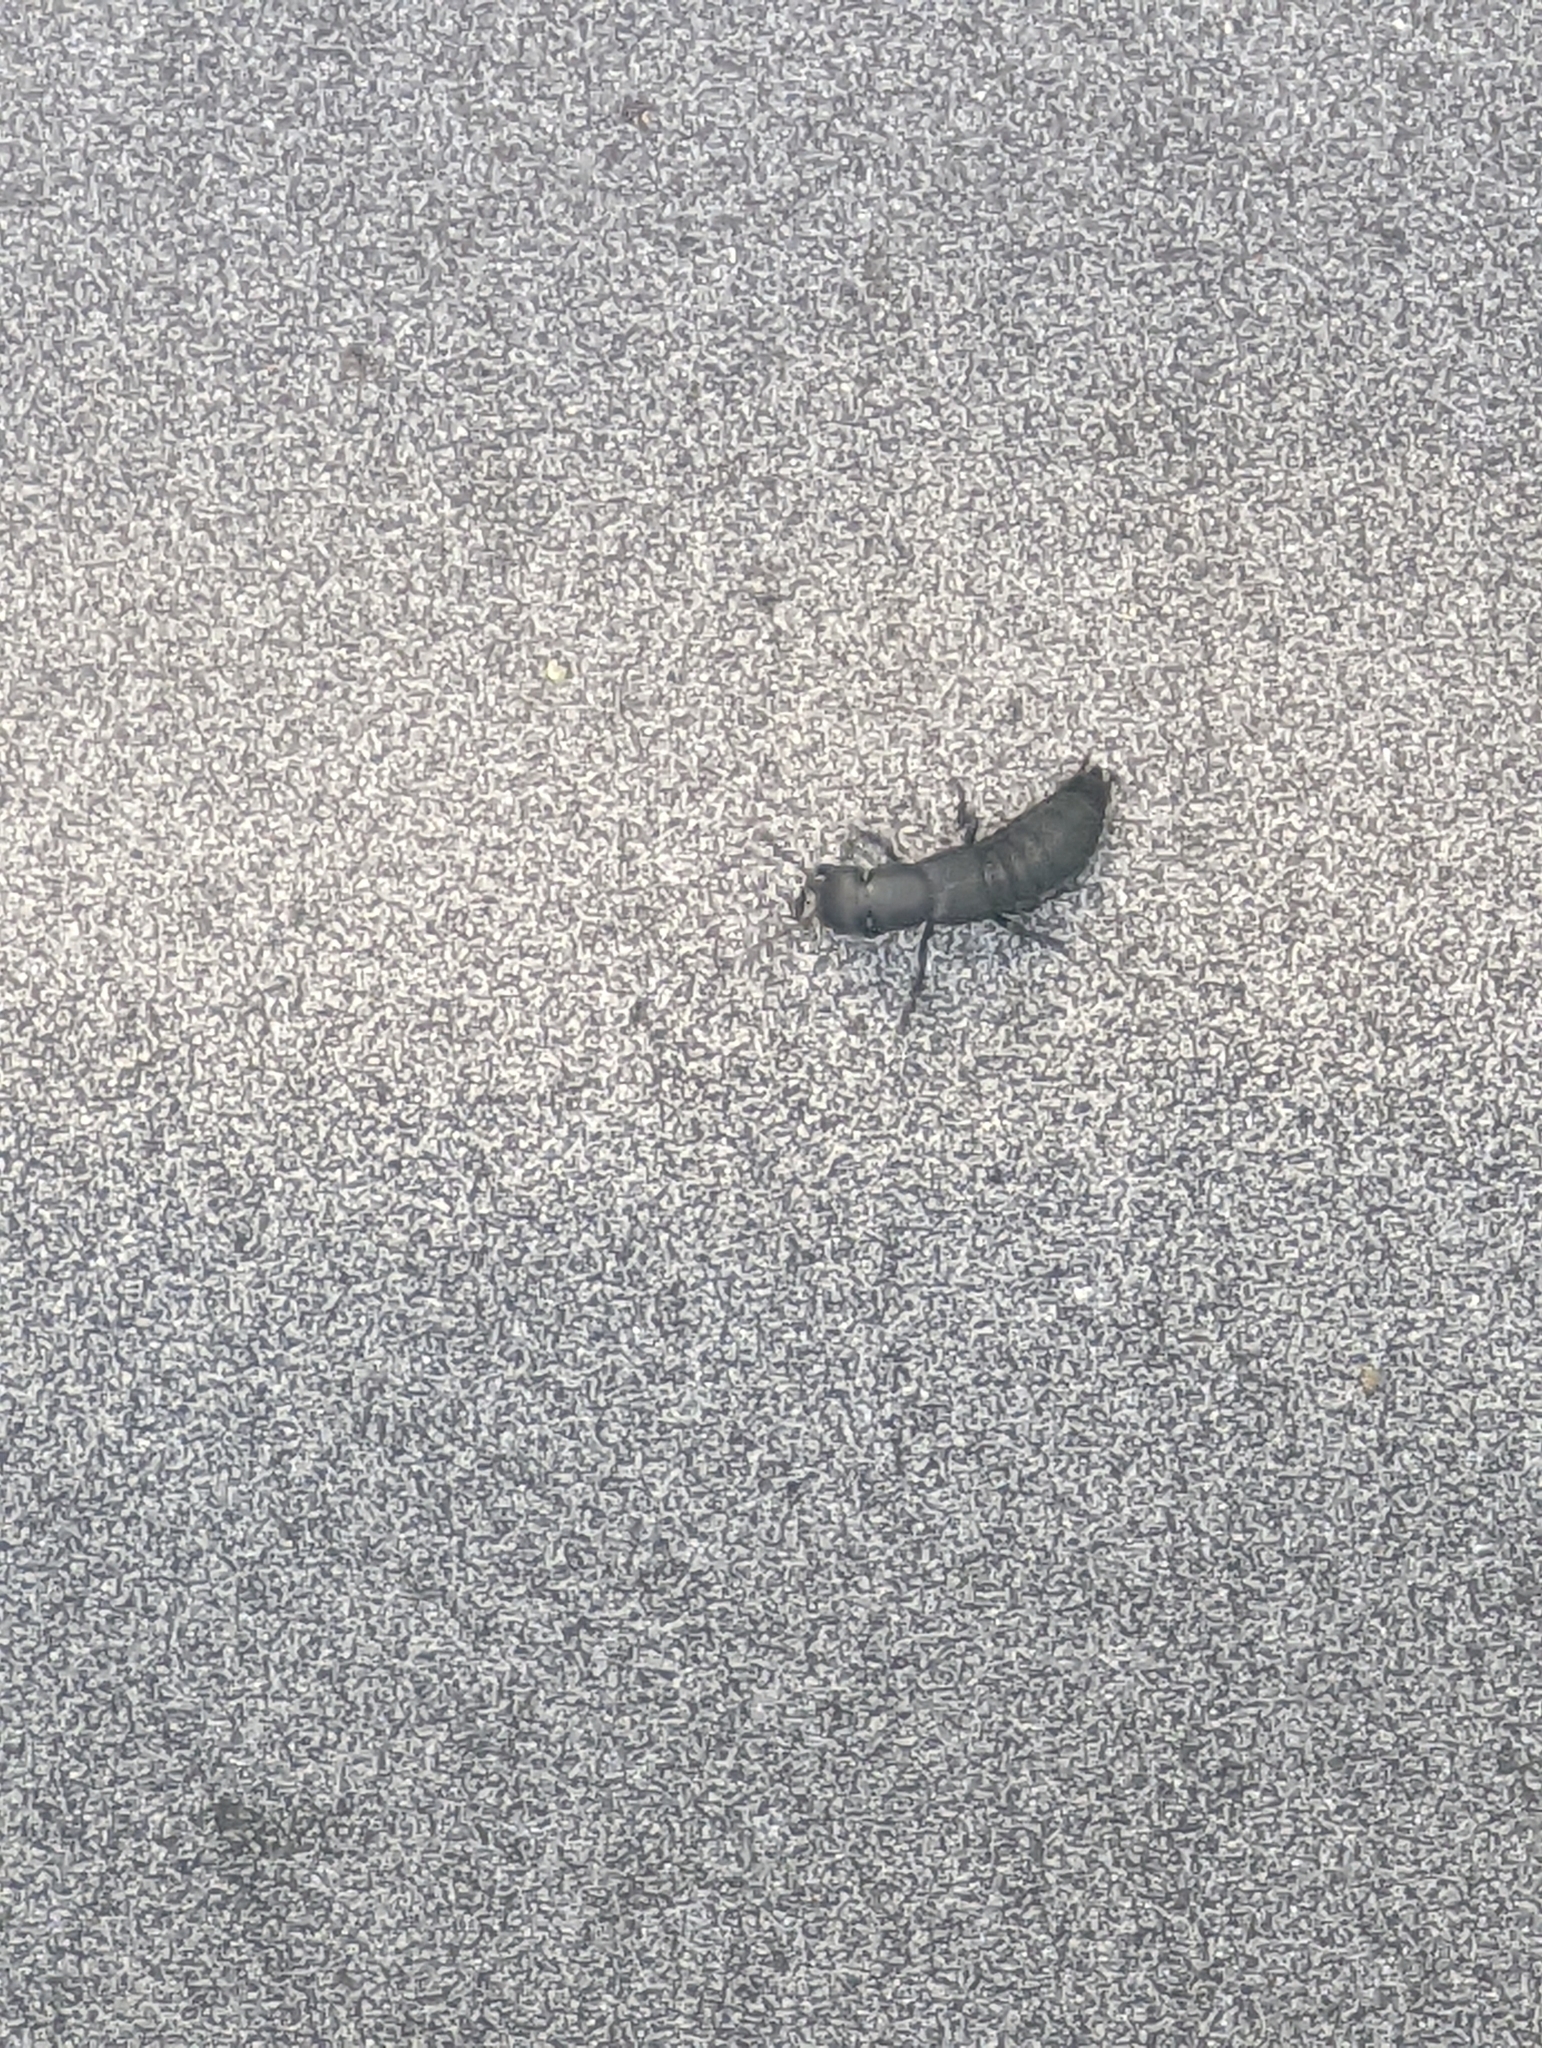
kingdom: Animalia
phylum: Arthropoda
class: Insecta
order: Coleoptera
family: Staphylinidae
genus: Ocypus
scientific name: Ocypus olens
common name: Devil's coach-horse
